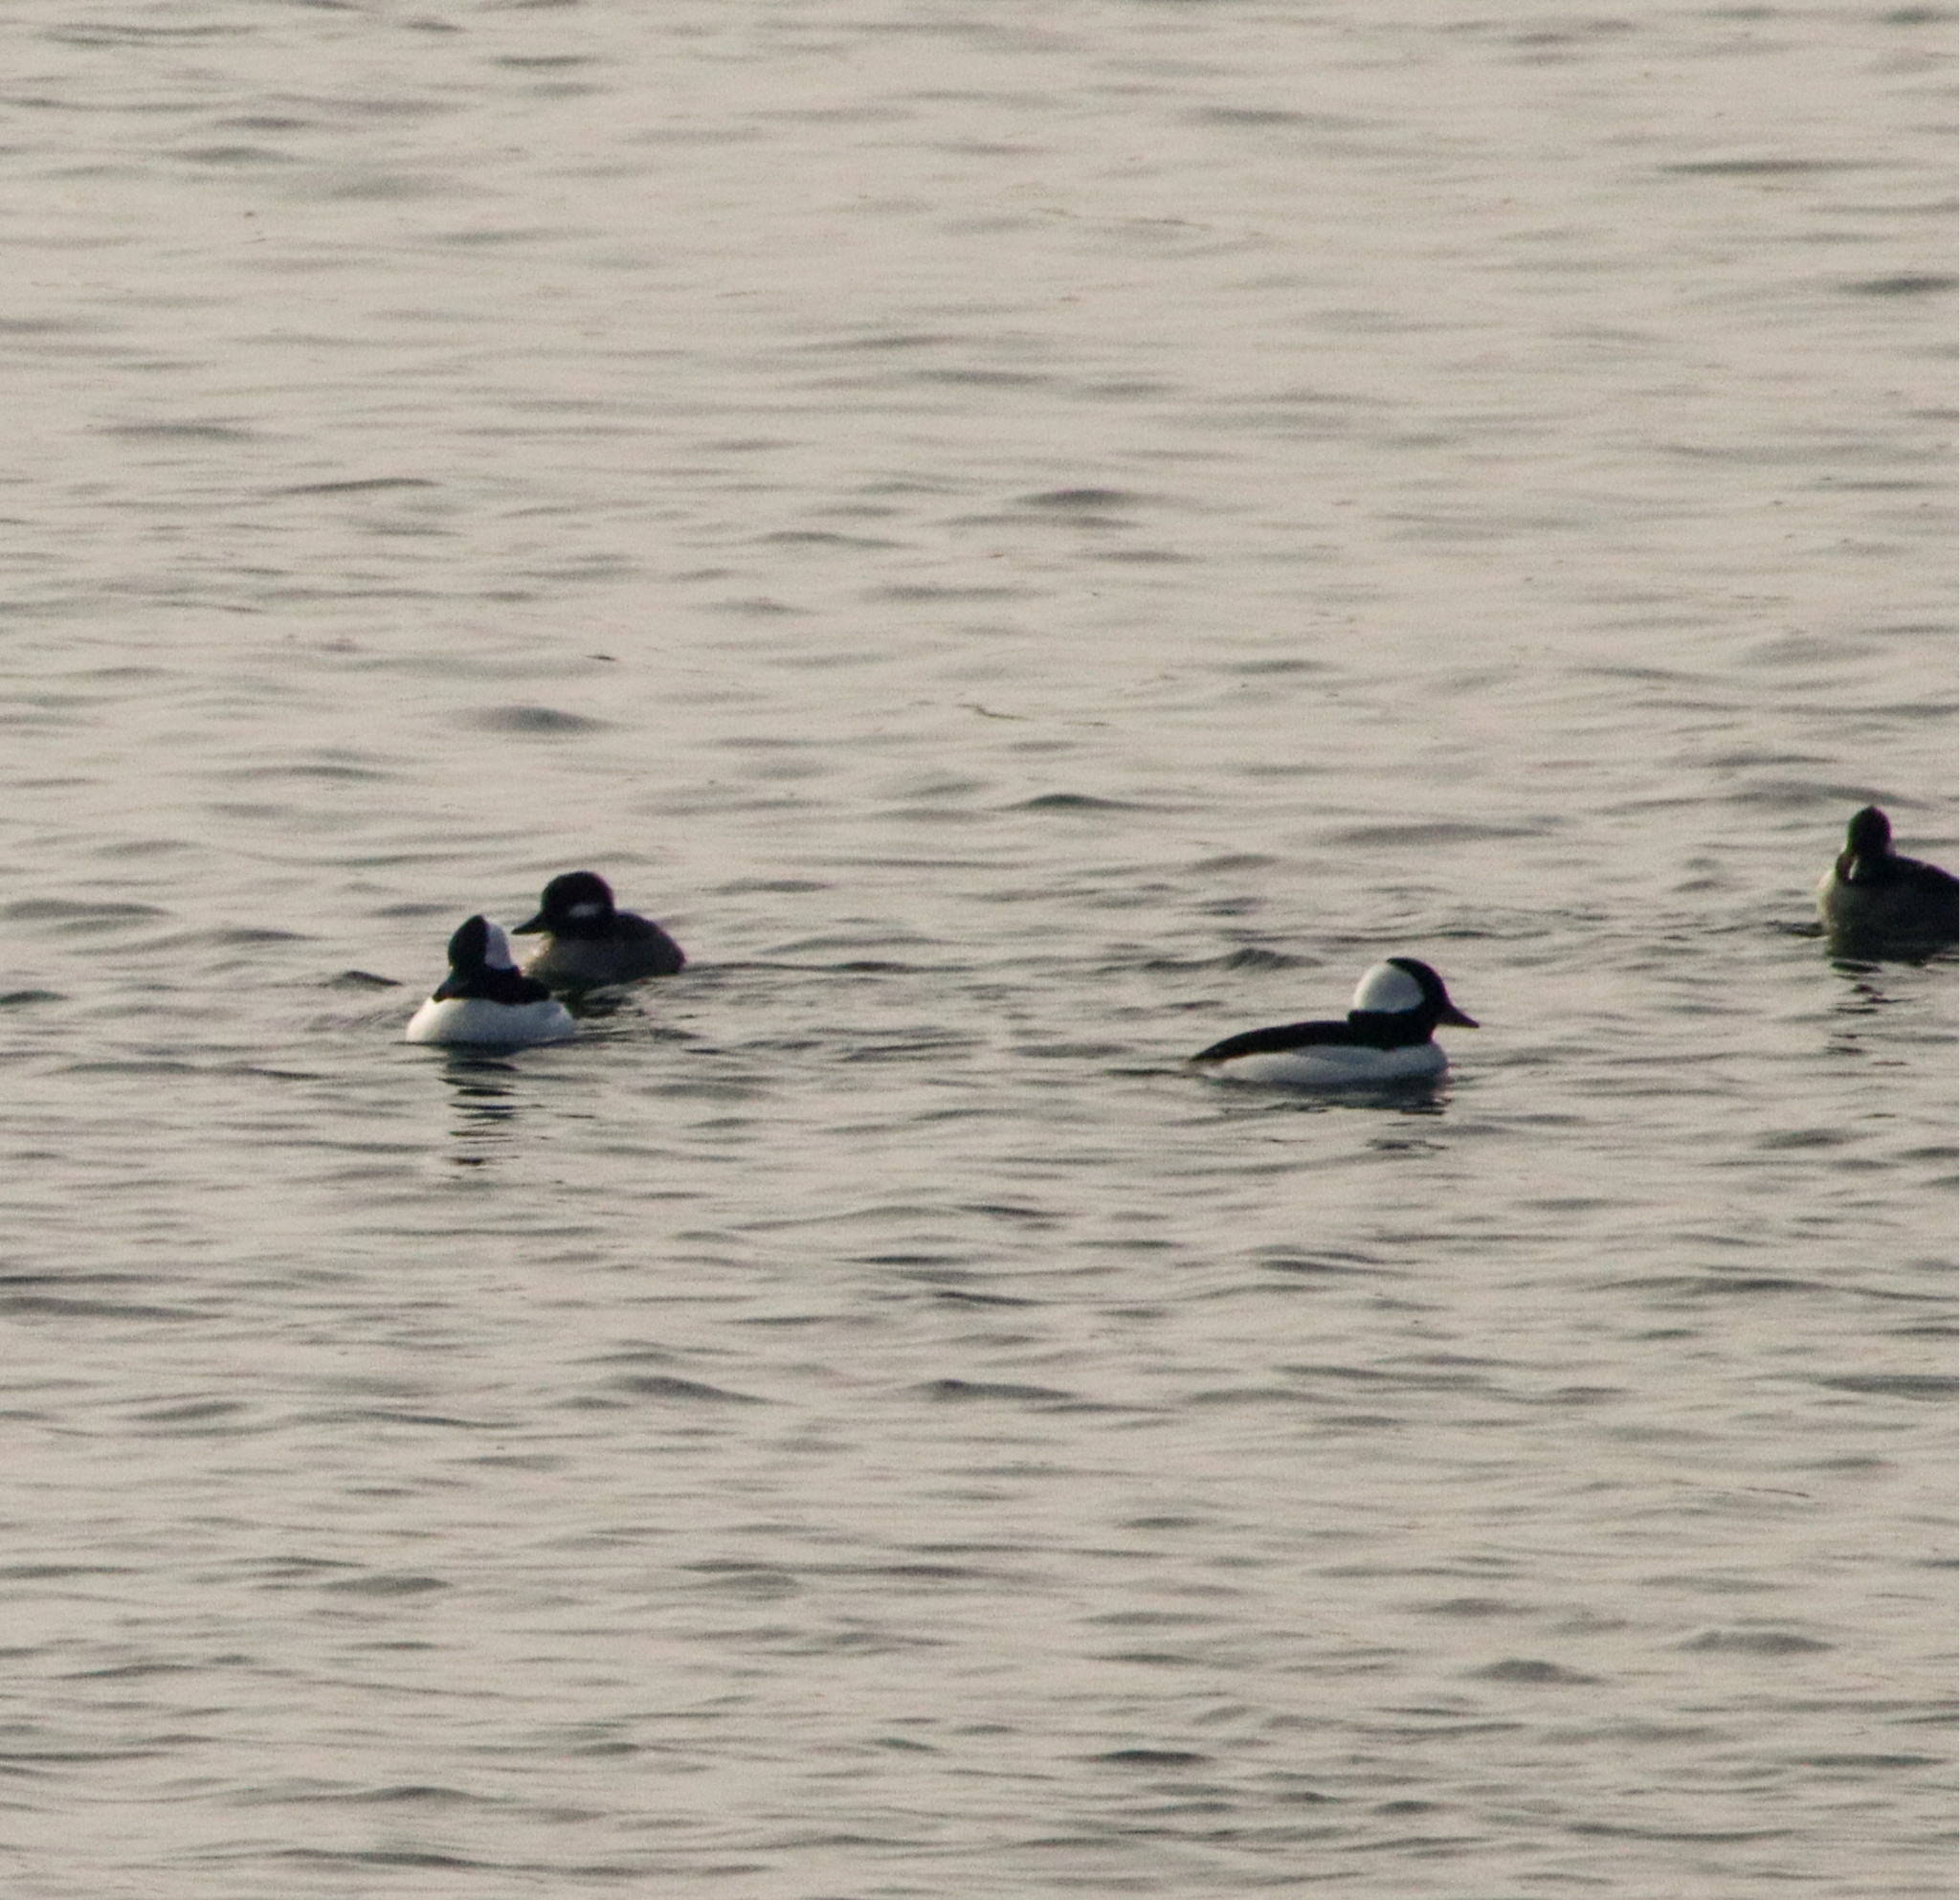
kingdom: Animalia
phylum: Chordata
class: Aves
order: Anseriformes
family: Anatidae
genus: Bucephala
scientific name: Bucephala albeola
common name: Bufflehead
